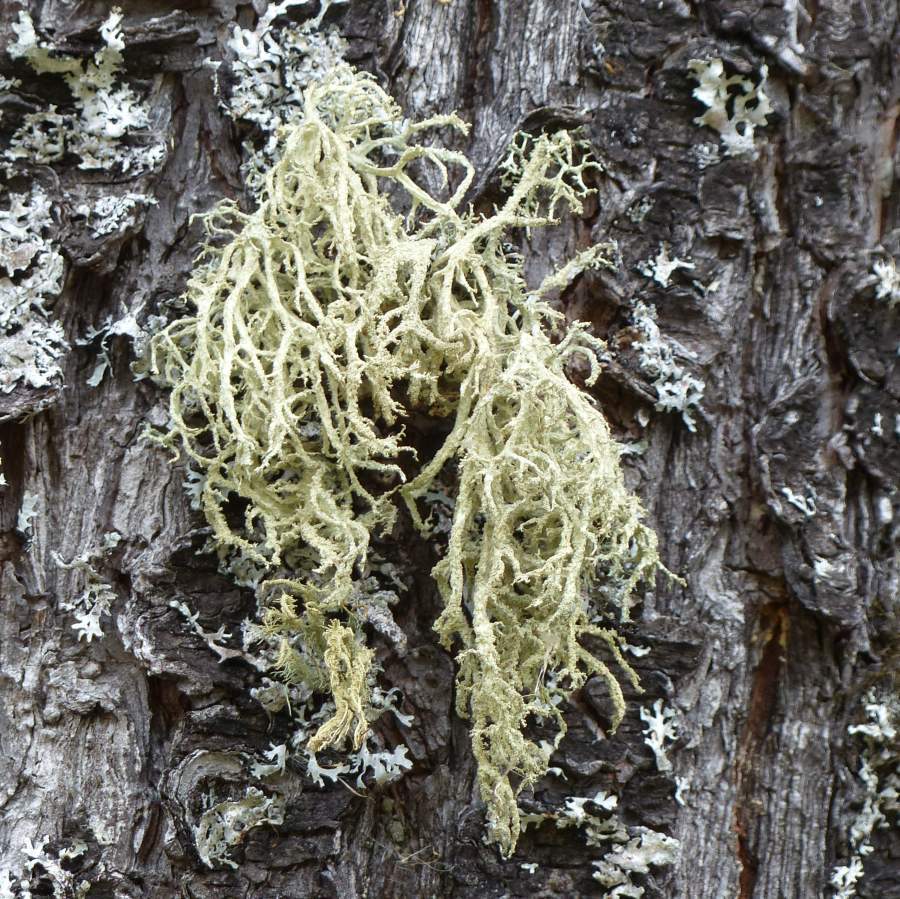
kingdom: Fungi
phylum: Ascomycota
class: Lecanoromycetes
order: Lecanorales
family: Parmeliaceae
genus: Evernia
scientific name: Evernia mesomorpha
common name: Boreal oak moss lichen
